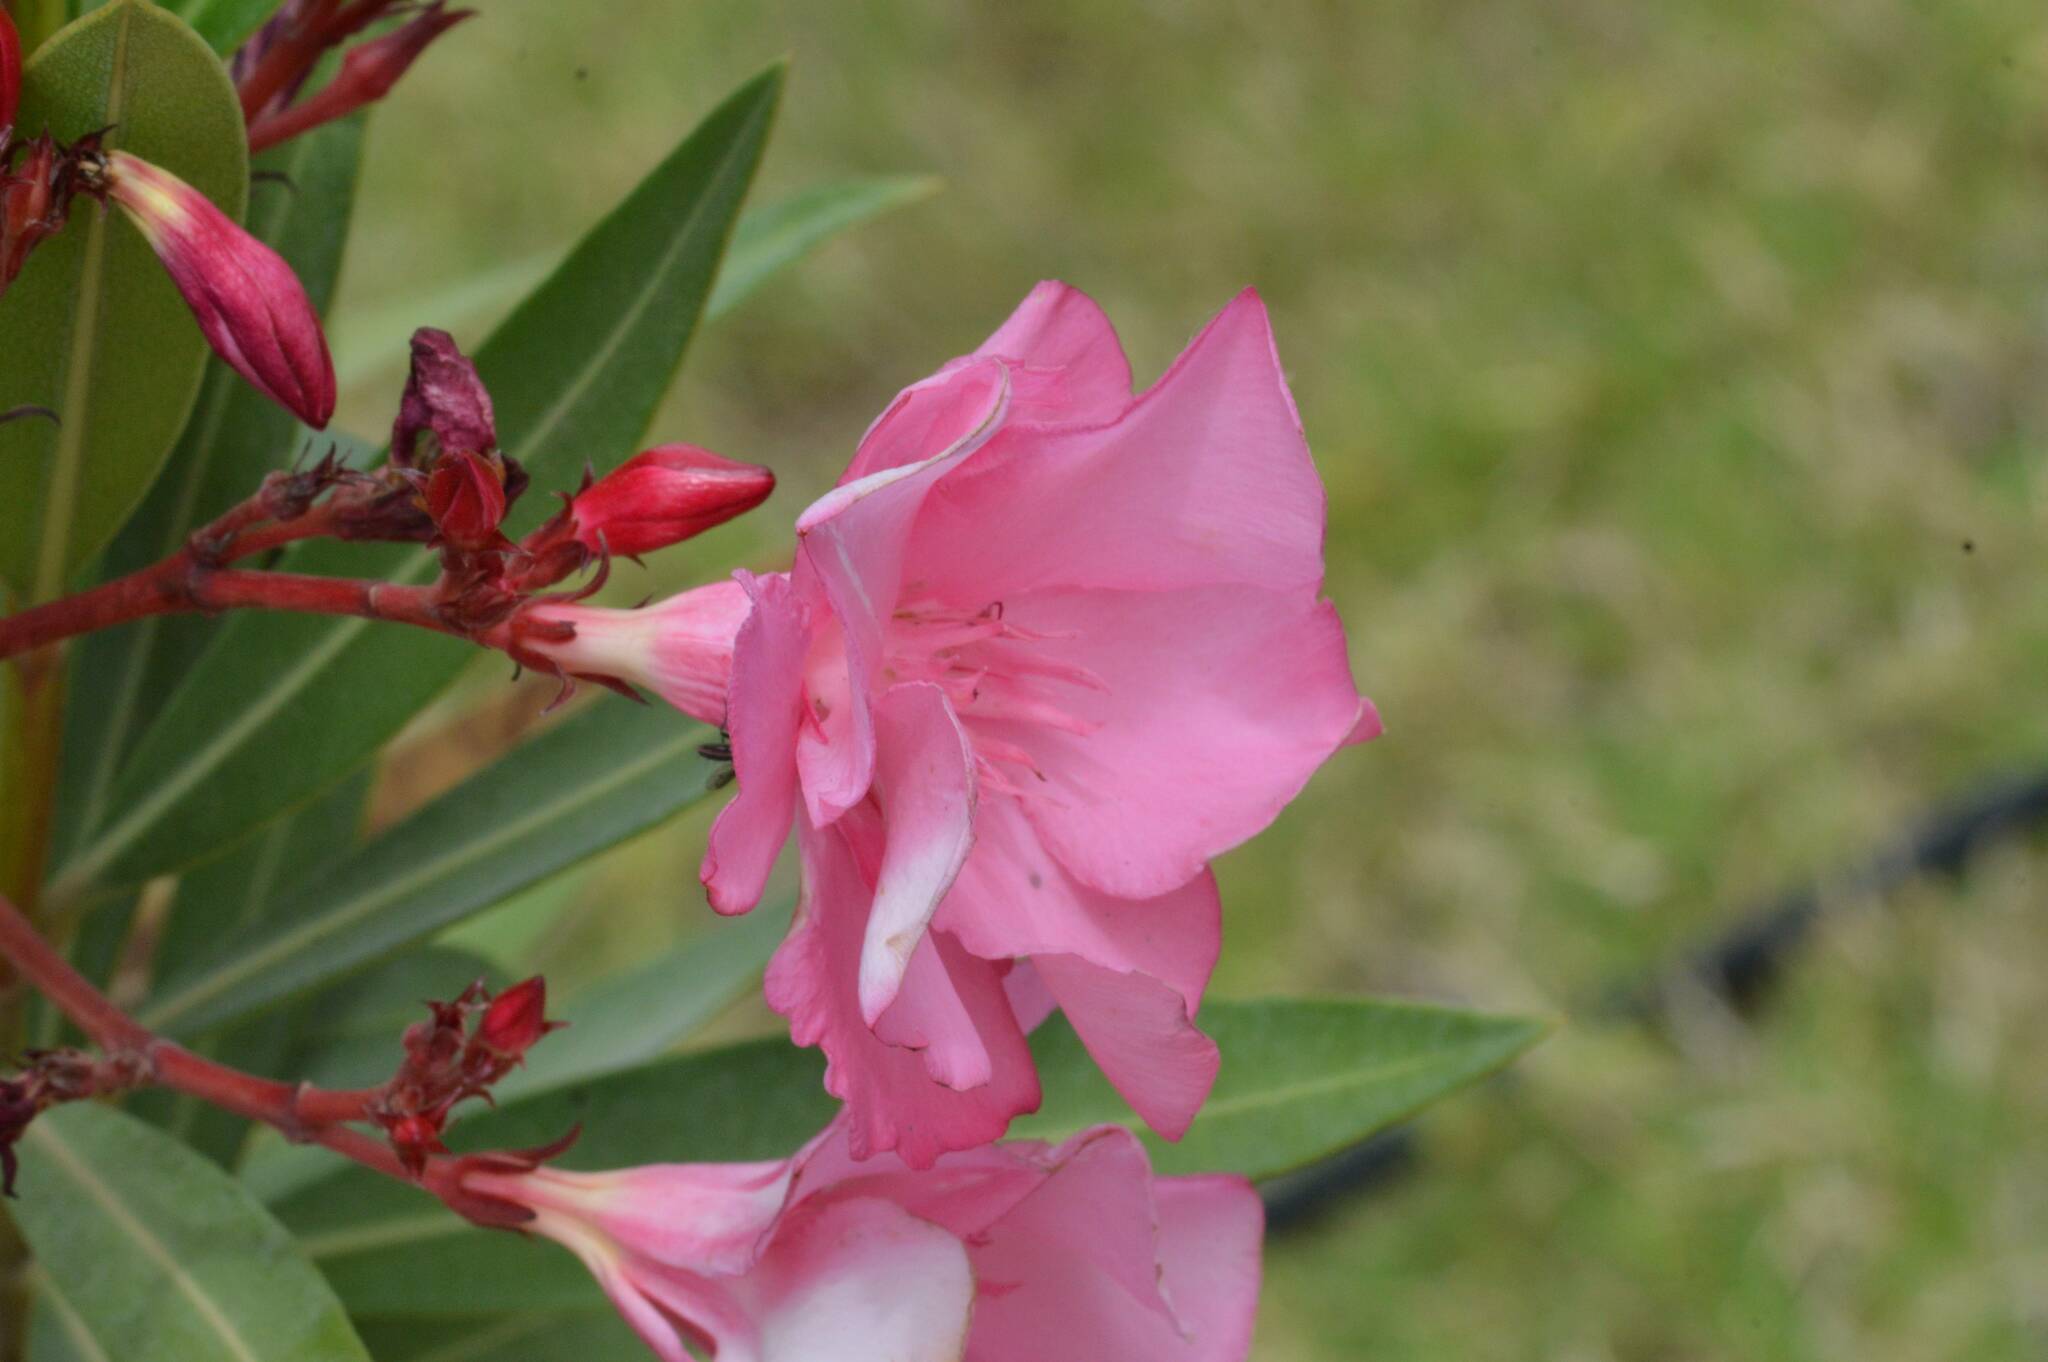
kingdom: Plantae
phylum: Tracheophyta
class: Magnoliopsida
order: Gentianales
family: Apocynaceae
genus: Nerium
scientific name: Nerium oleander
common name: Oleander
